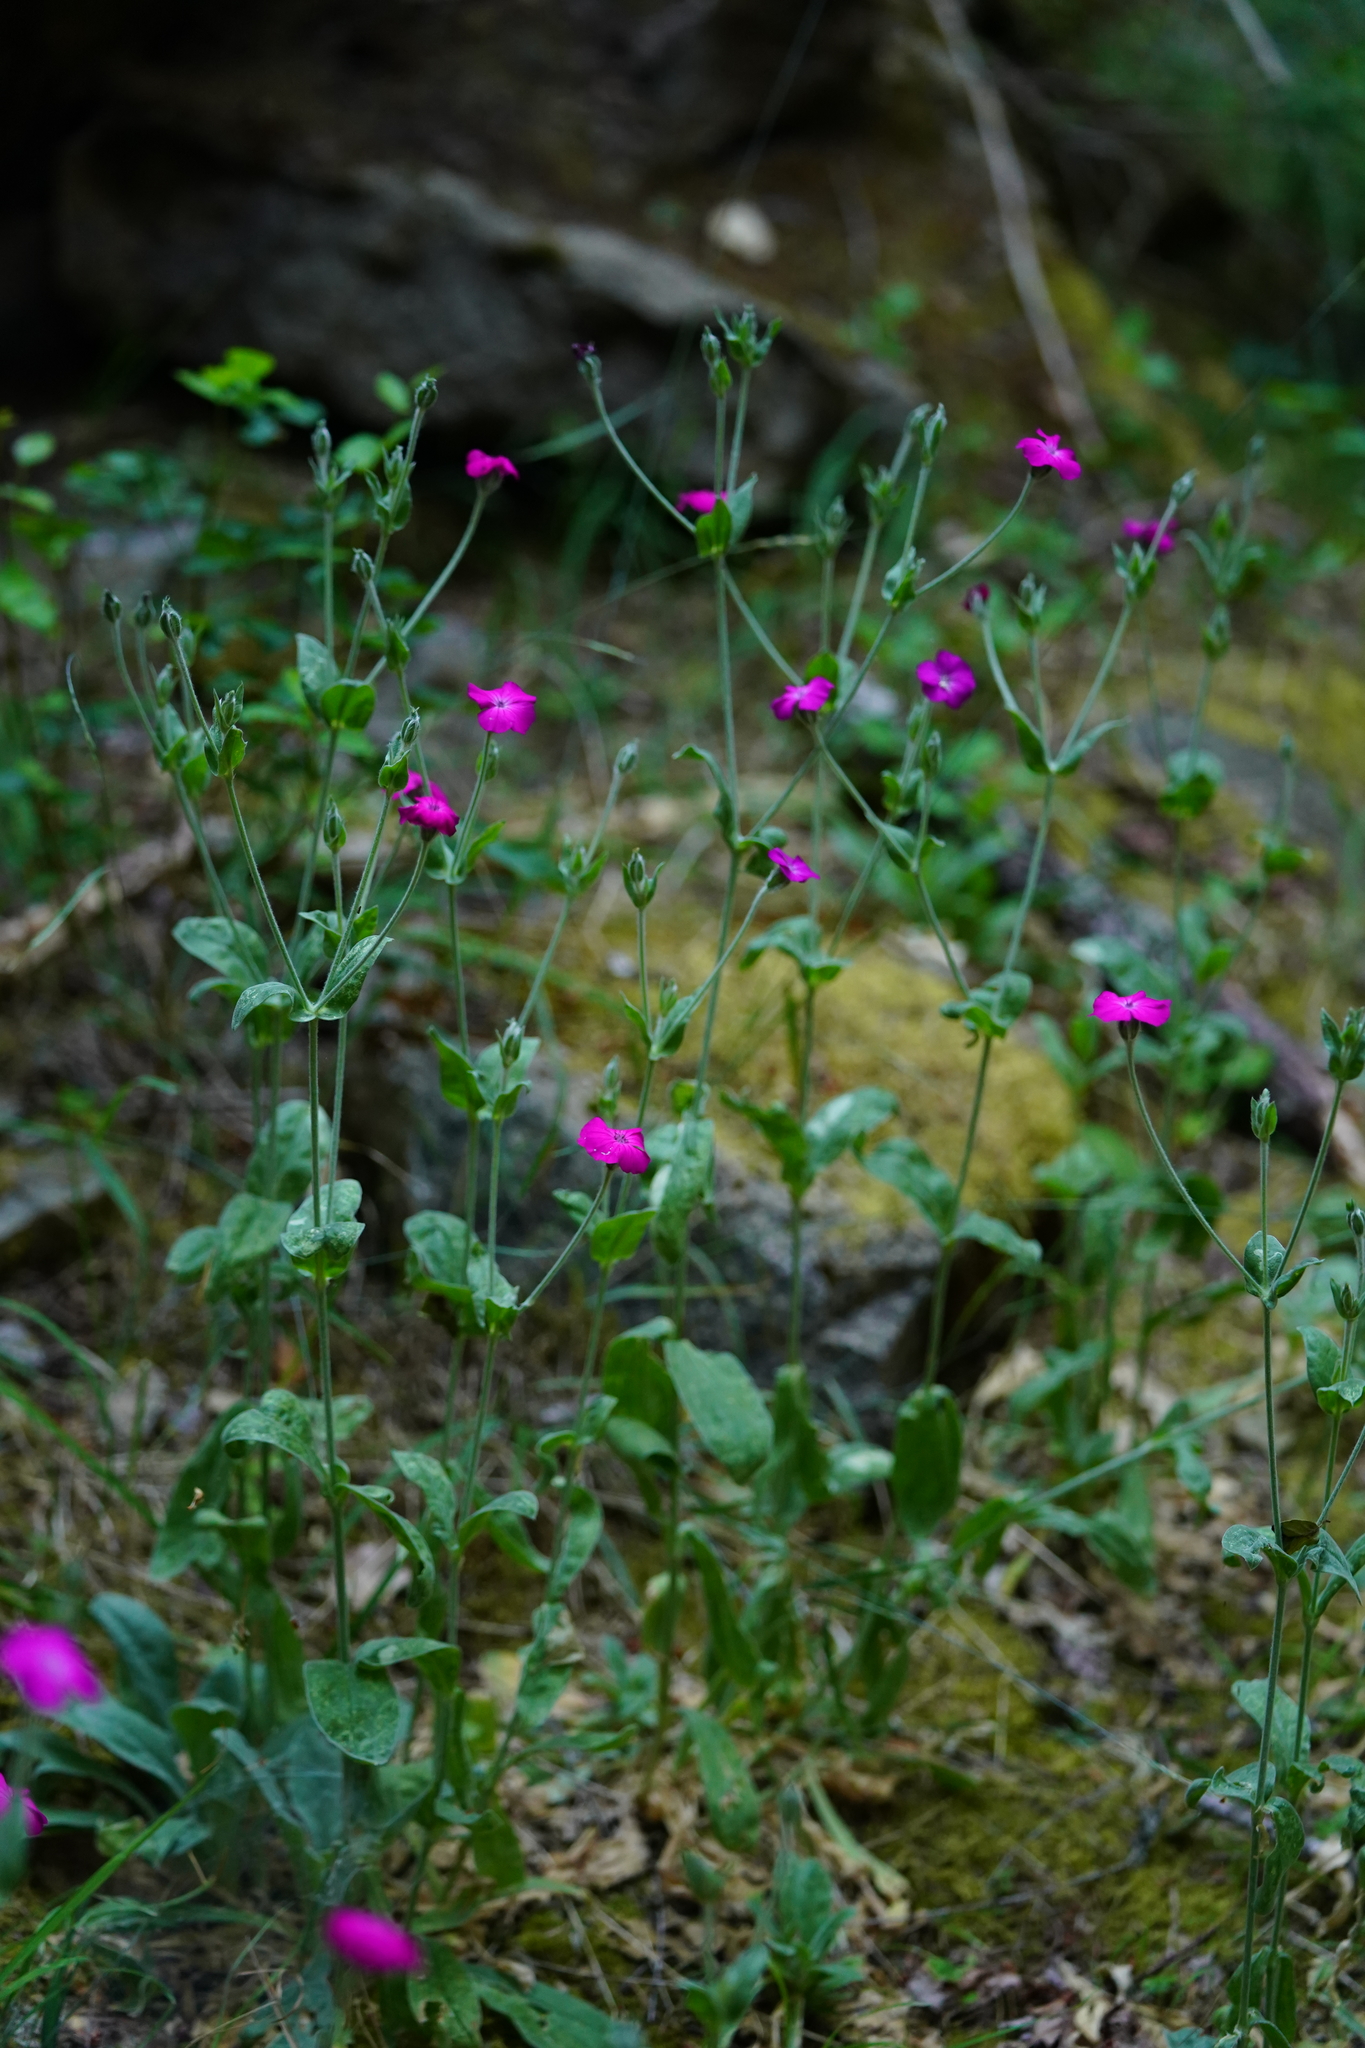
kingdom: Plantae
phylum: Tracheophyta
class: Magnoliopsida
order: Caryophyllales
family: Caryophyllaceae
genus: Silene
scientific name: Silene coronaria
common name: Rose campion
